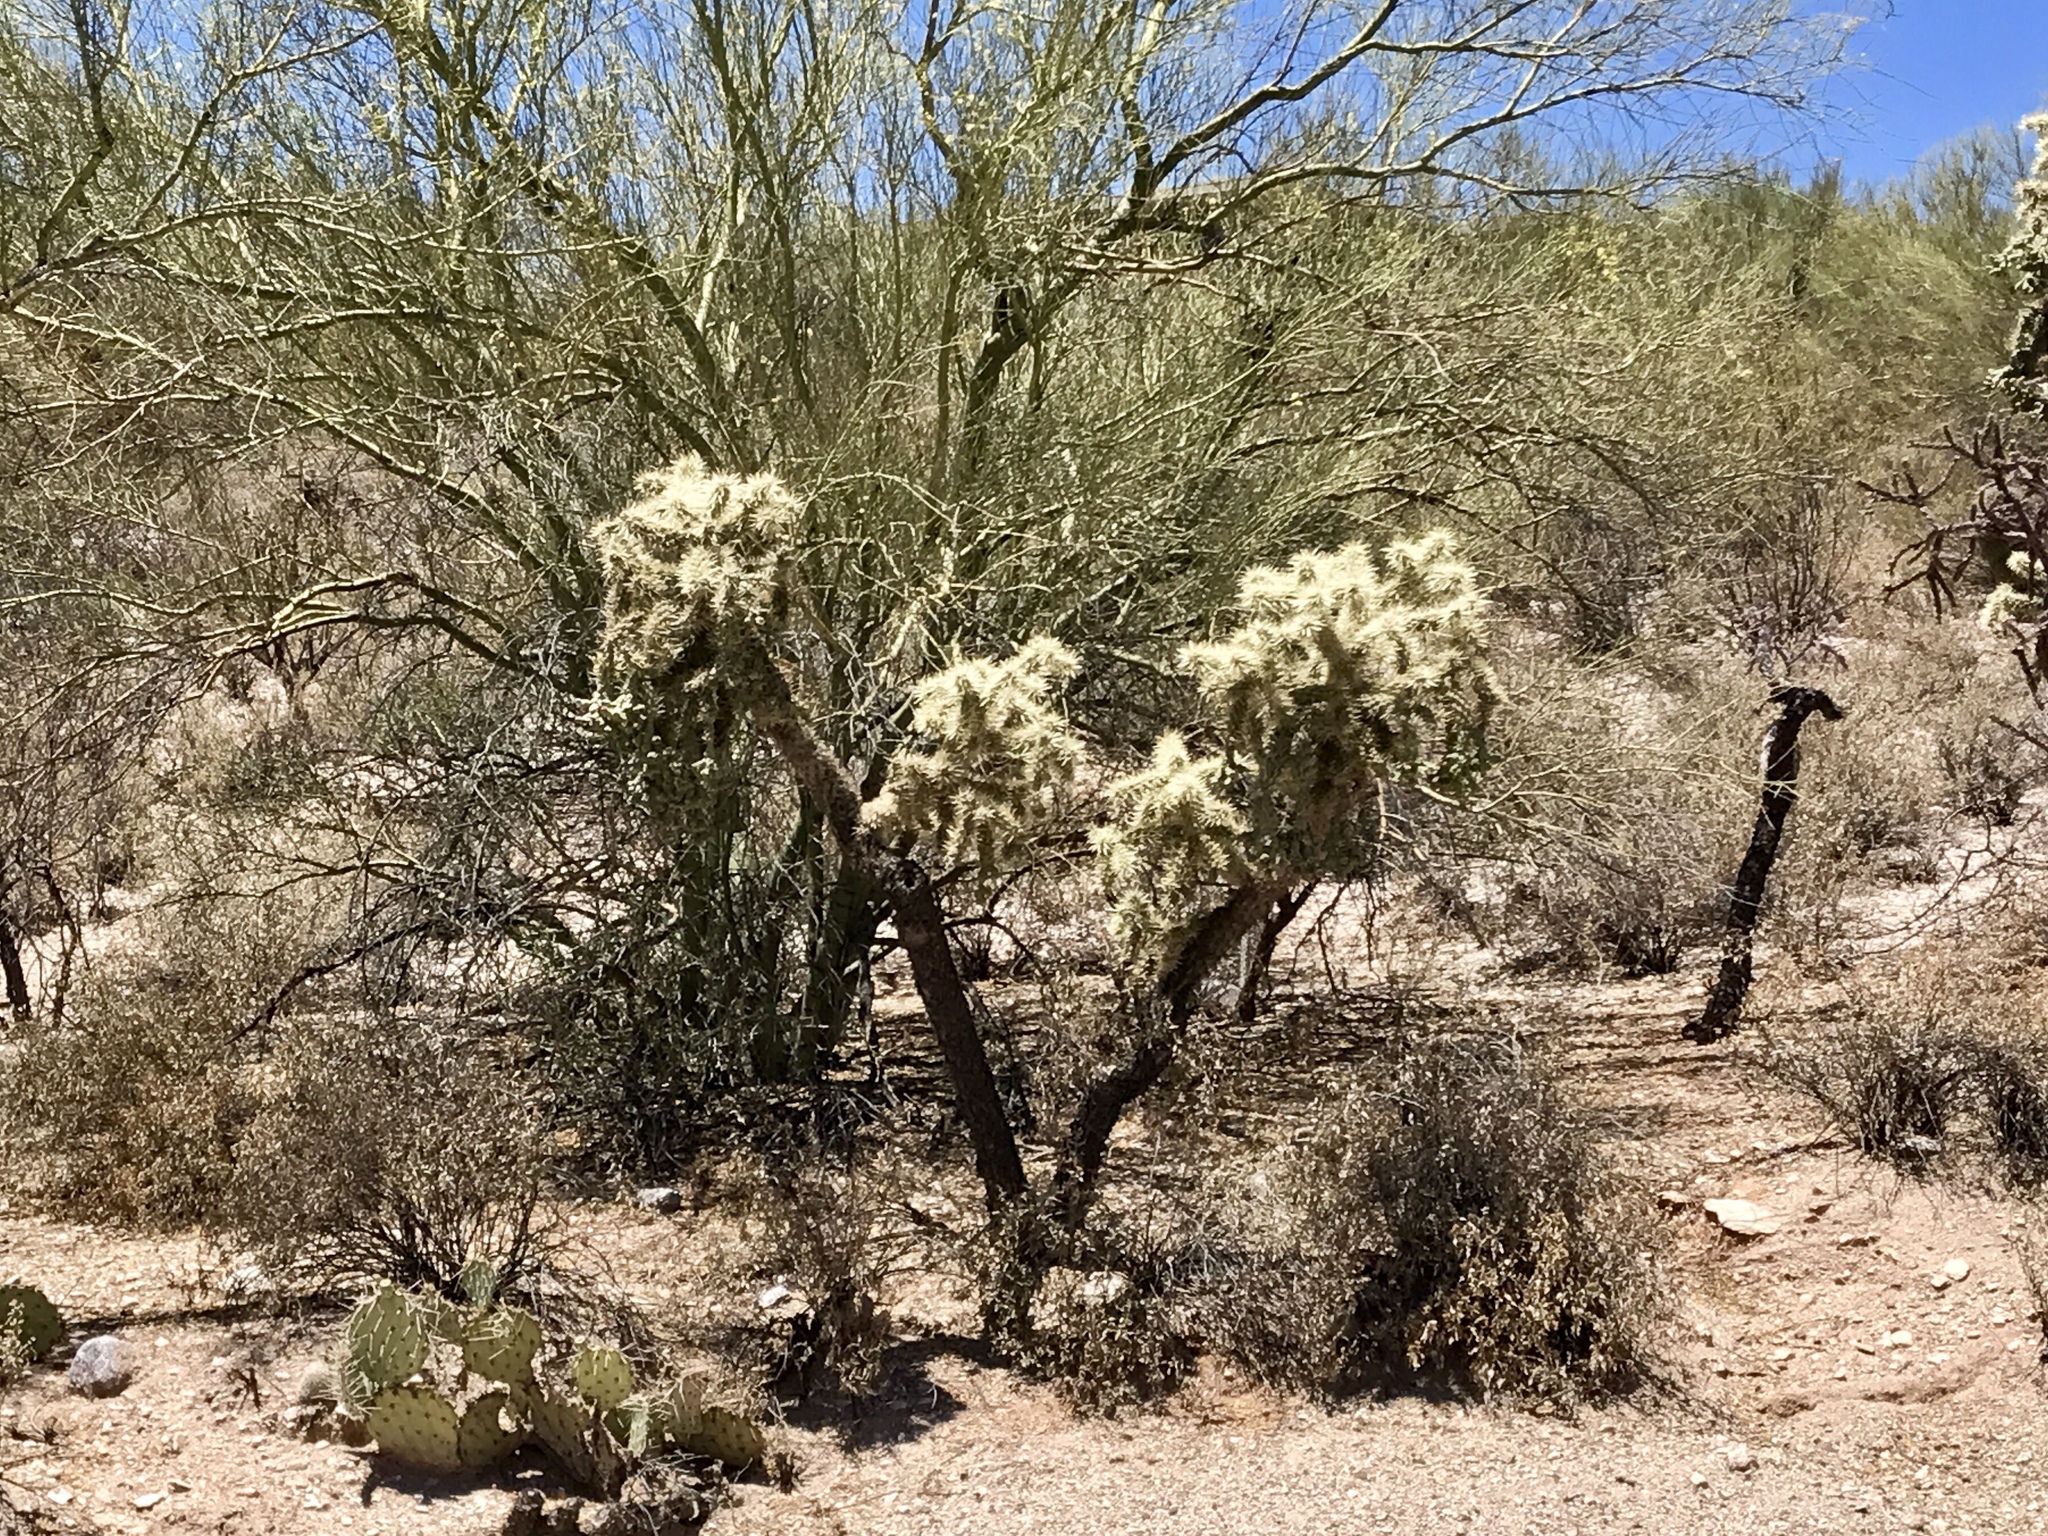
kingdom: Plantae
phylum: Tracheophyta
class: Magnoliopsida
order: Caryophyllales
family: Cactaceae
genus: Cylindropuntia
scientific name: Cylindropuntia fulgida
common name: Jumping cholla
